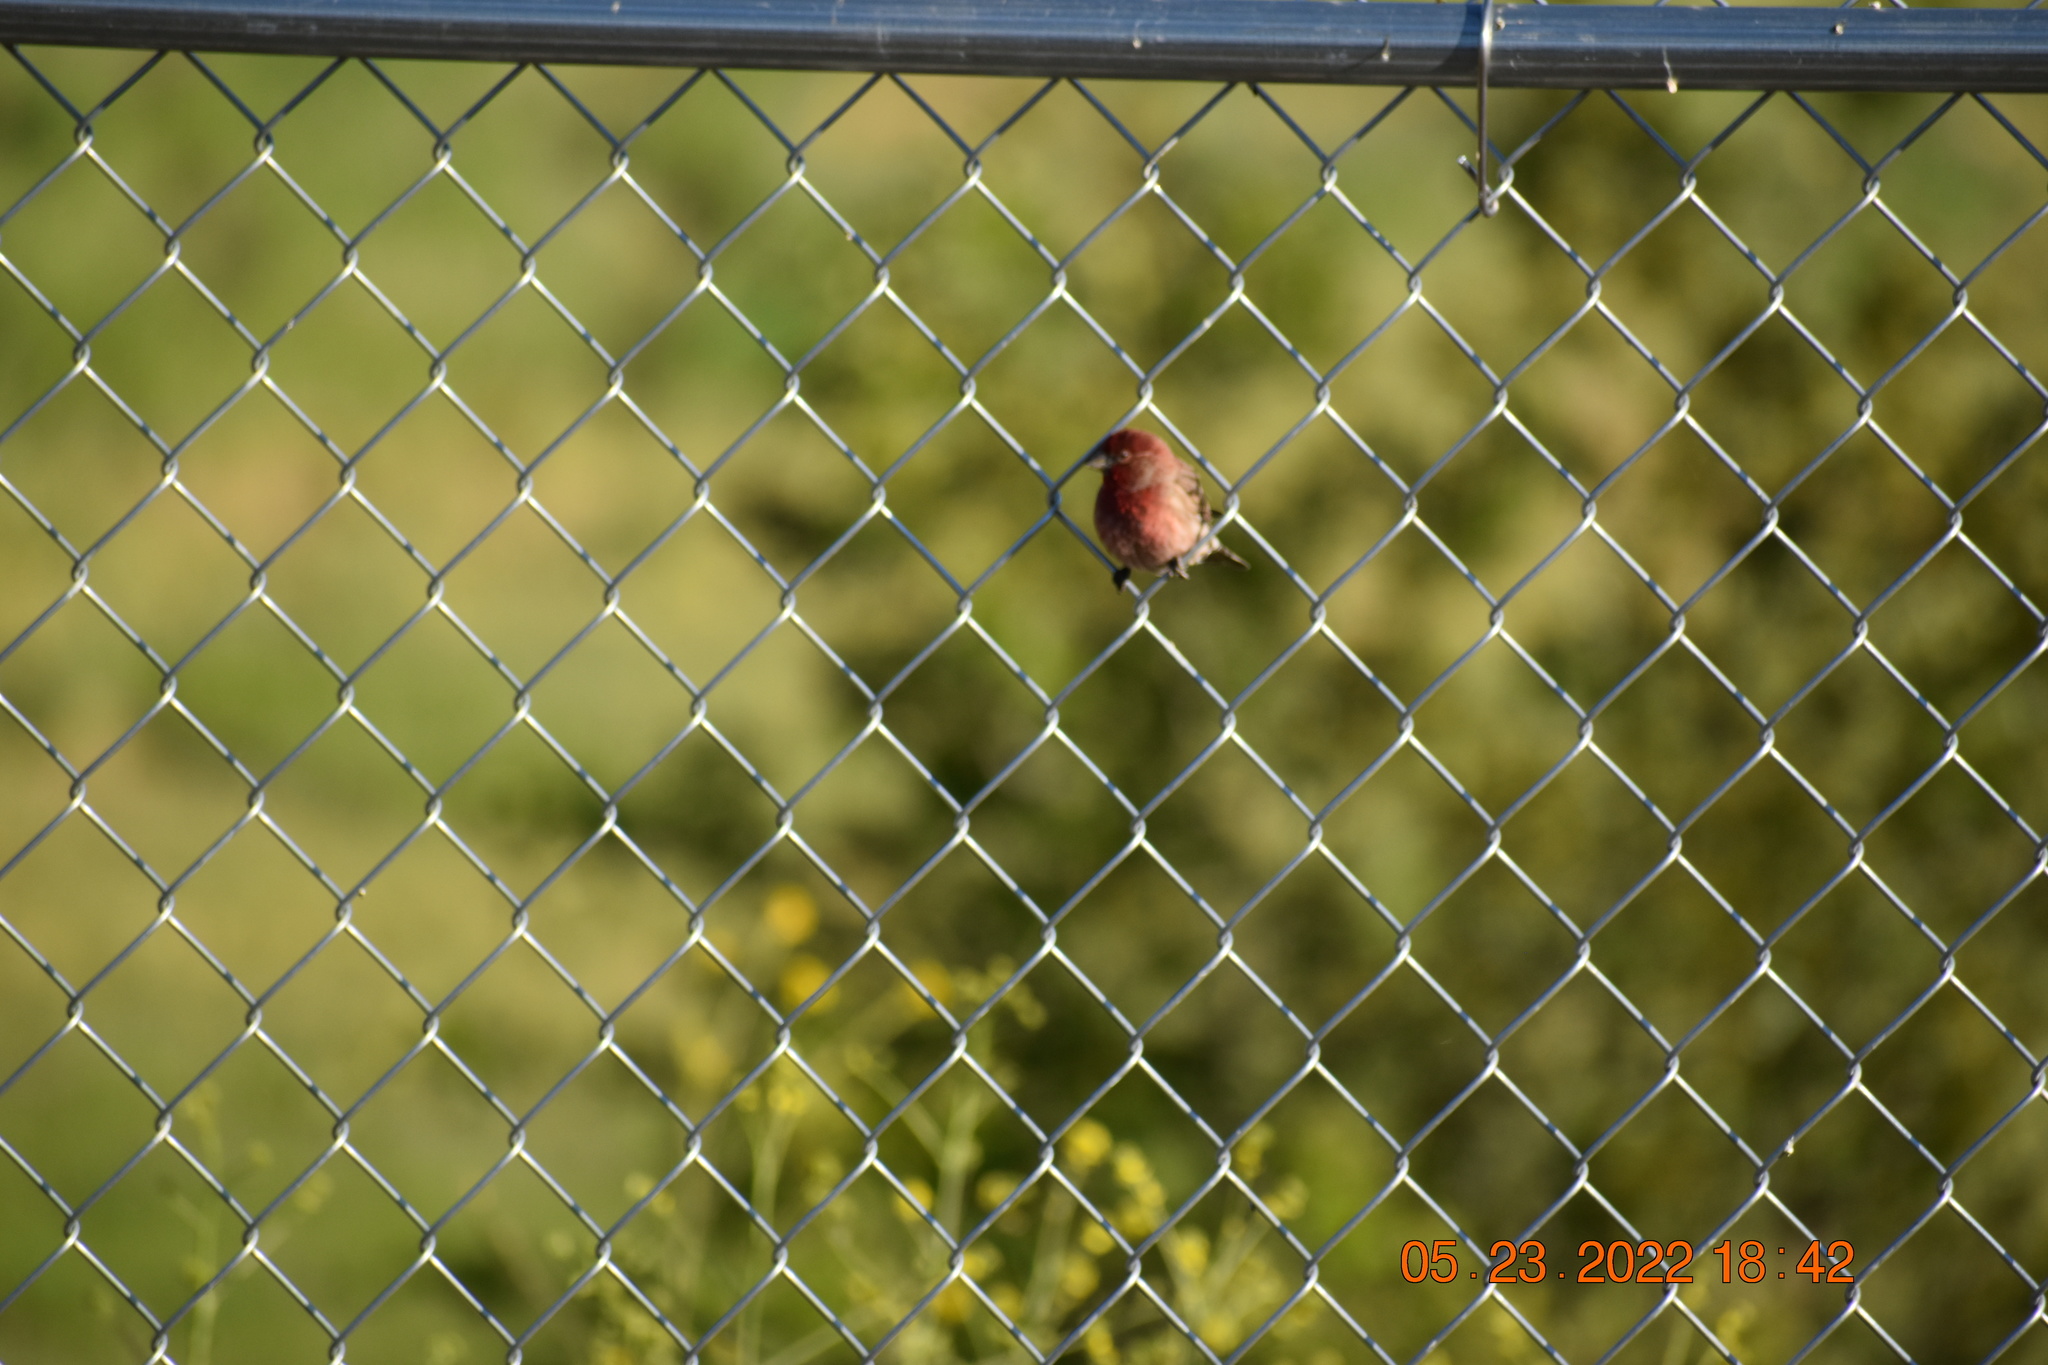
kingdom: Animalia
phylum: Chordata
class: Aves
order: Passeriformes
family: Fringillidae
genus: Haemorhous
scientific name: Haemorhous mexicanus
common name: House finch
